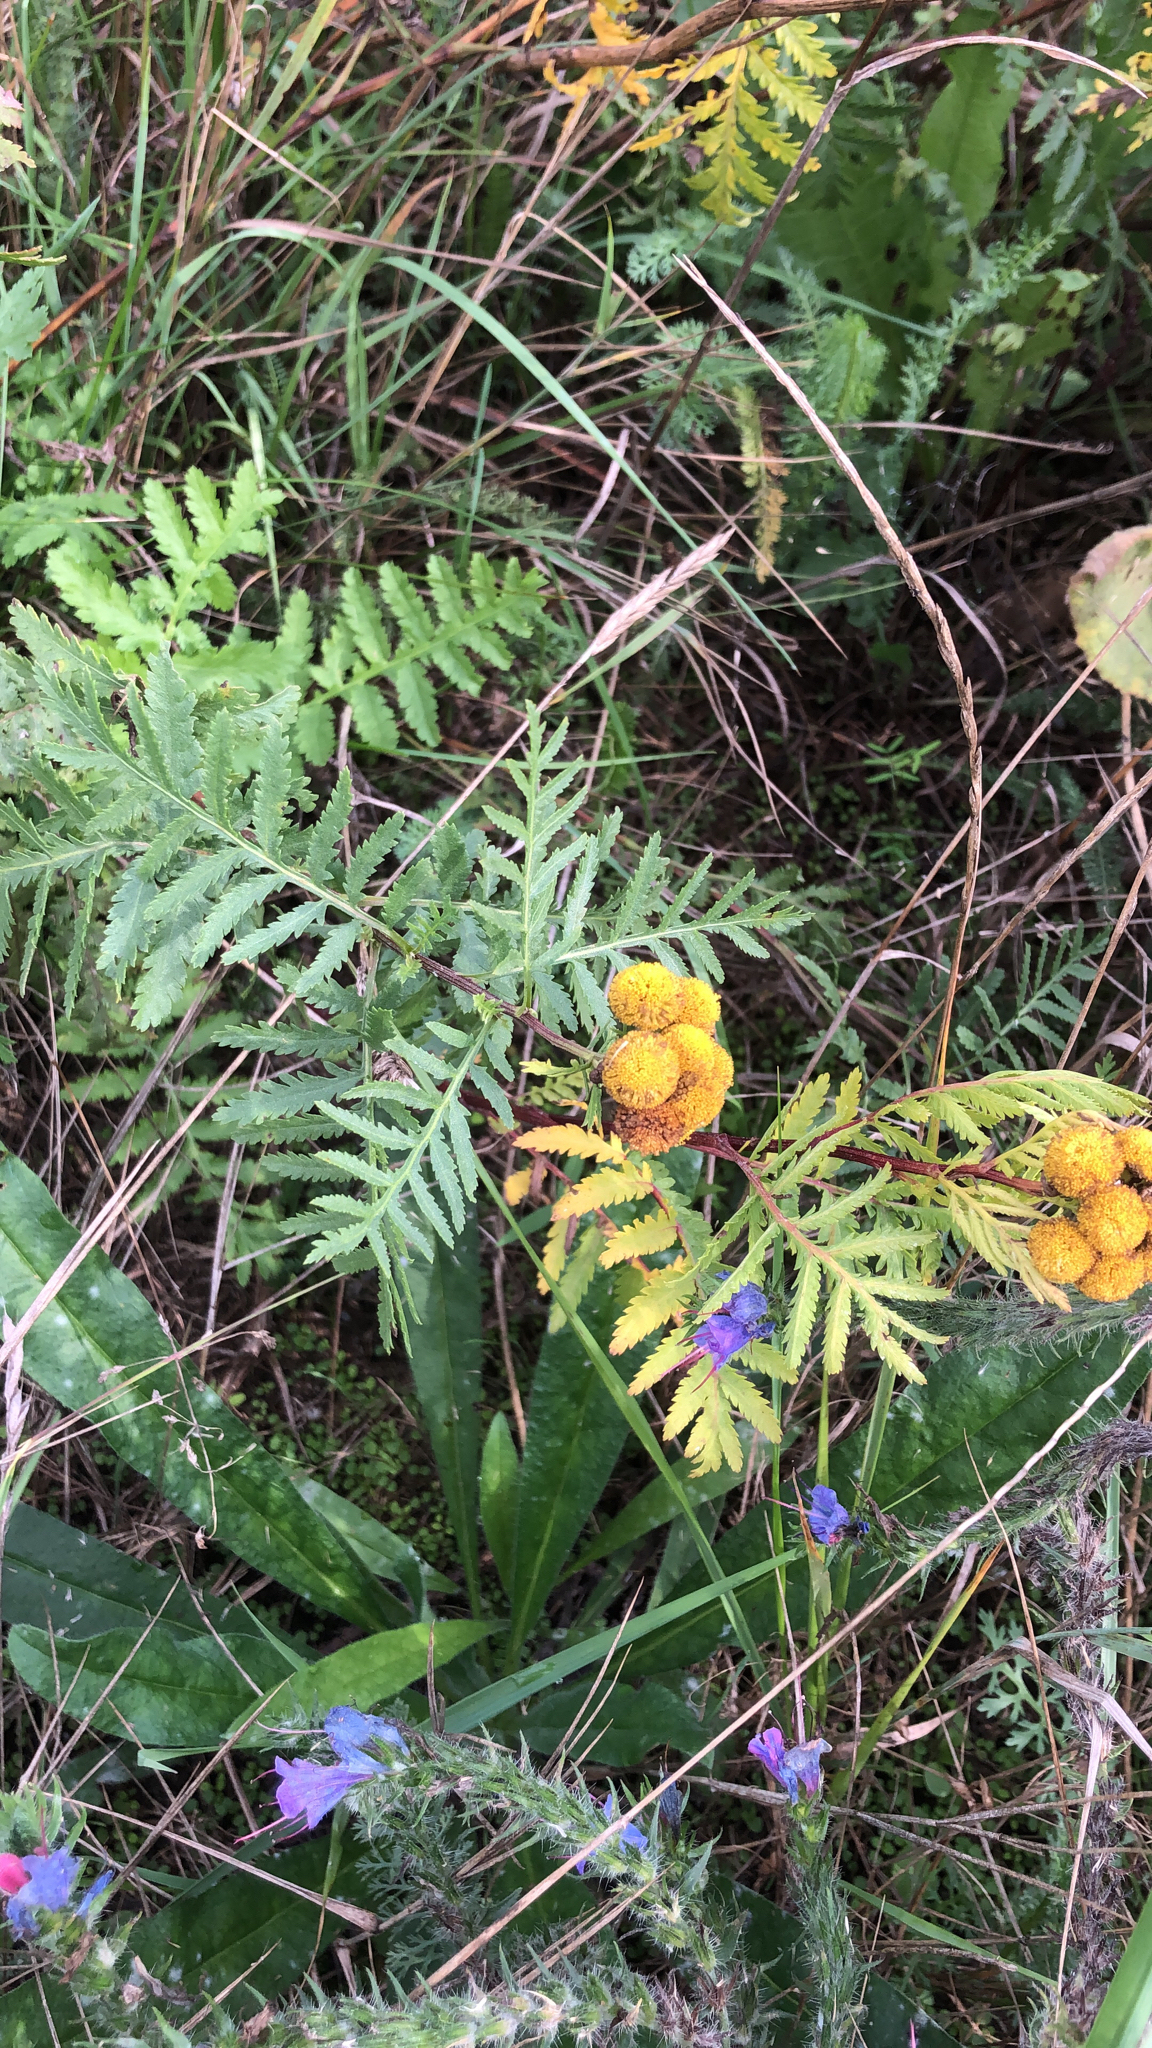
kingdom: Plantae
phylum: Tracheophyta
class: Magnoliopsida
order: Asterales
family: Asteraceae
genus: Tanacetum
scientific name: Tanacetum vulgare
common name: Common tansy
